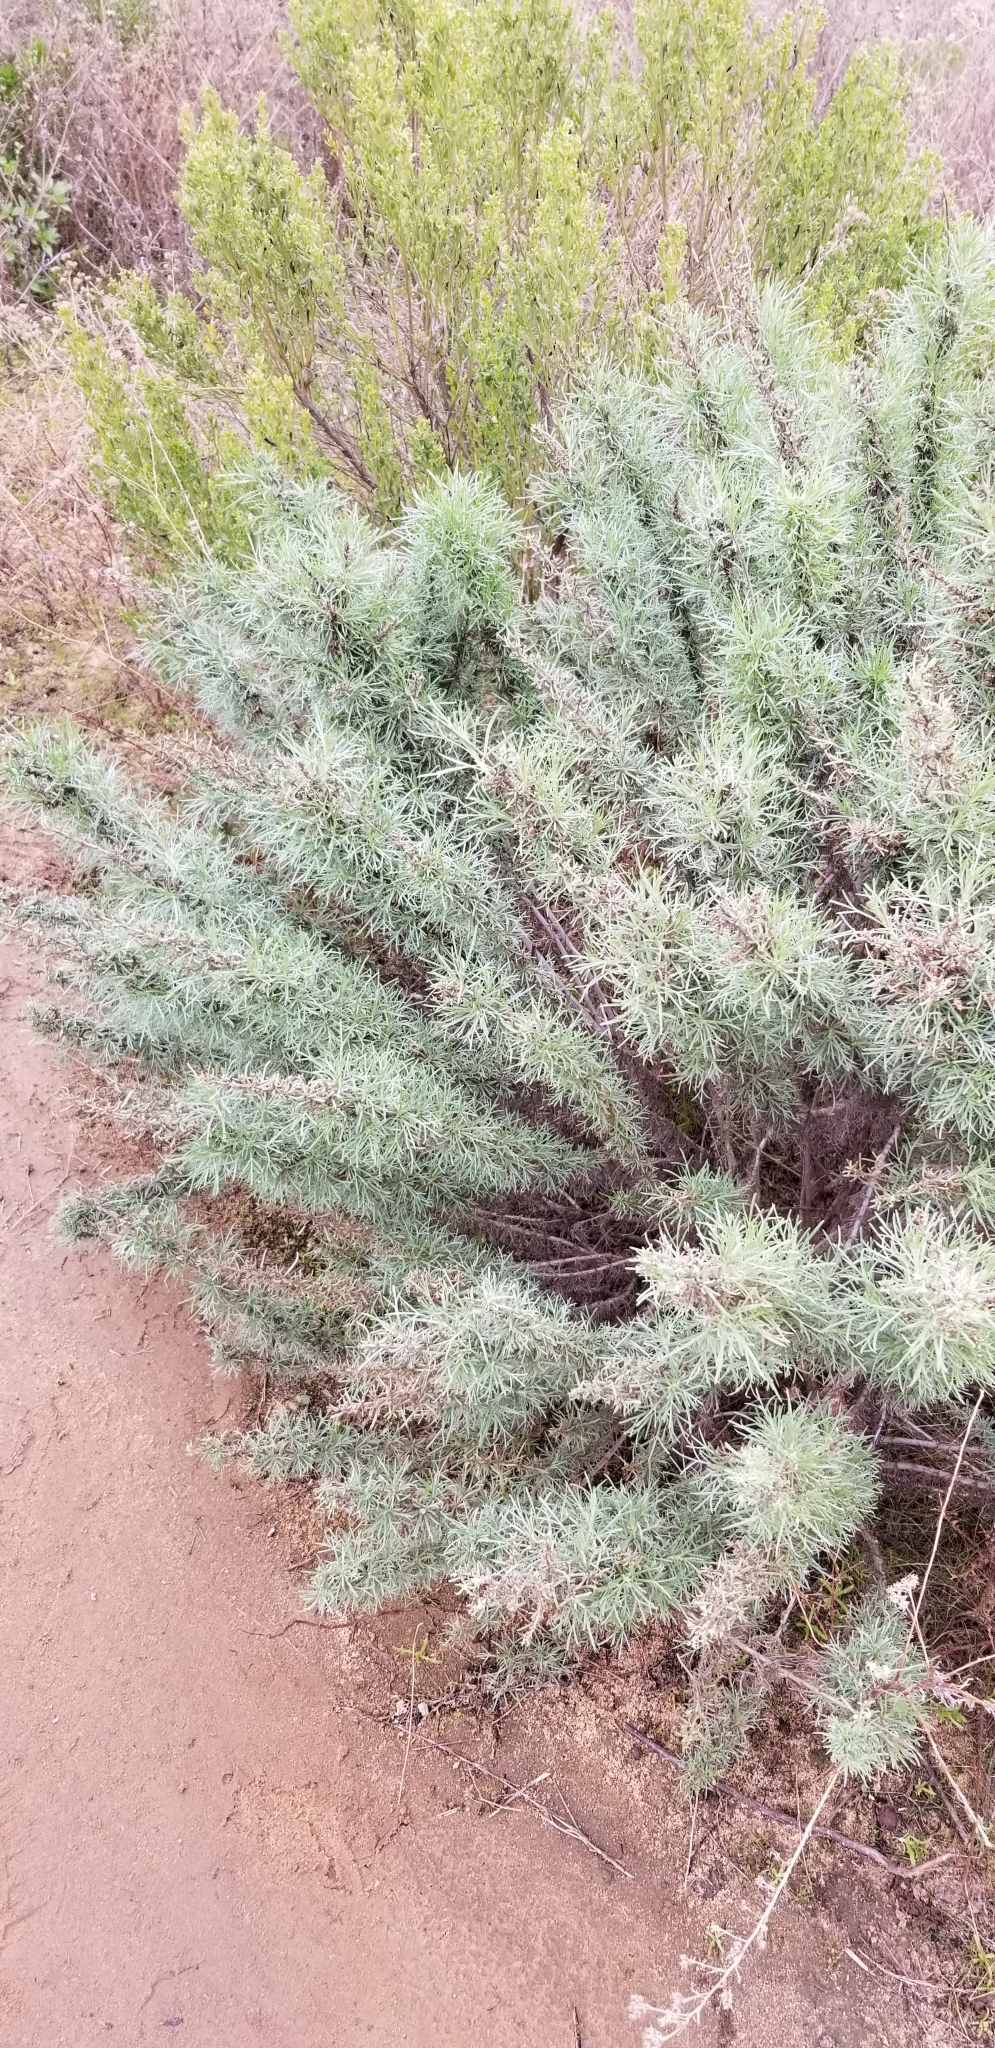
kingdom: Plantae
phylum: Tracheophyta
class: Magnoliopsida
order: Asterales
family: Asteraceae
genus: Artemisia
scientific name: Artemisia californica
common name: California sagebrush
